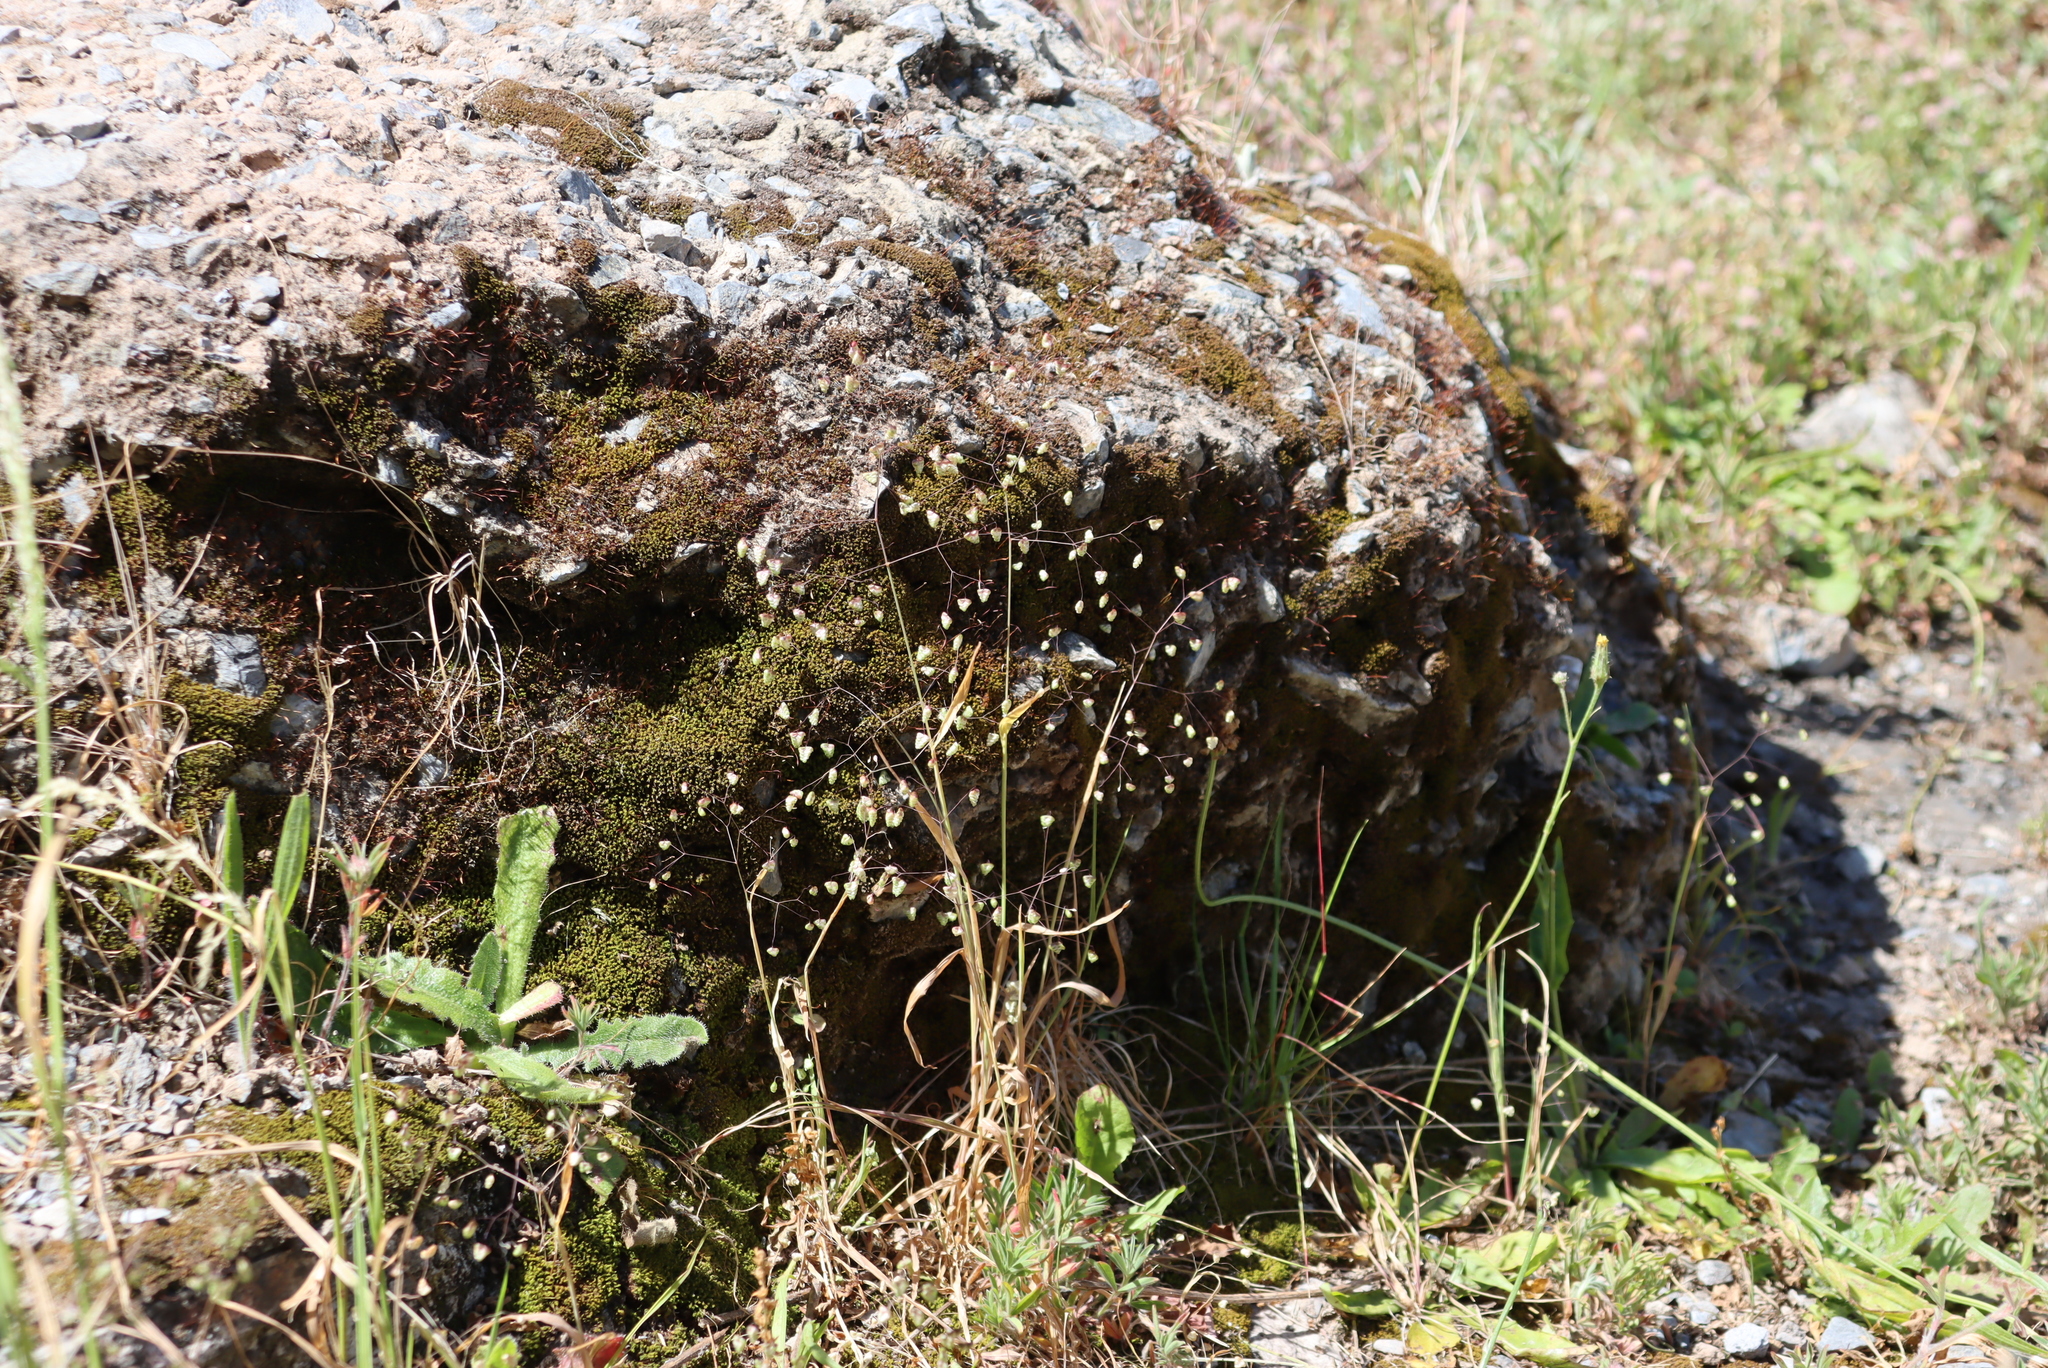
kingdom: Plantae
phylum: Tracheophyta
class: Liliopsida
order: Poales
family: Poaceae
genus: Briza
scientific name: Briza minor
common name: Lesser quaking-grass
